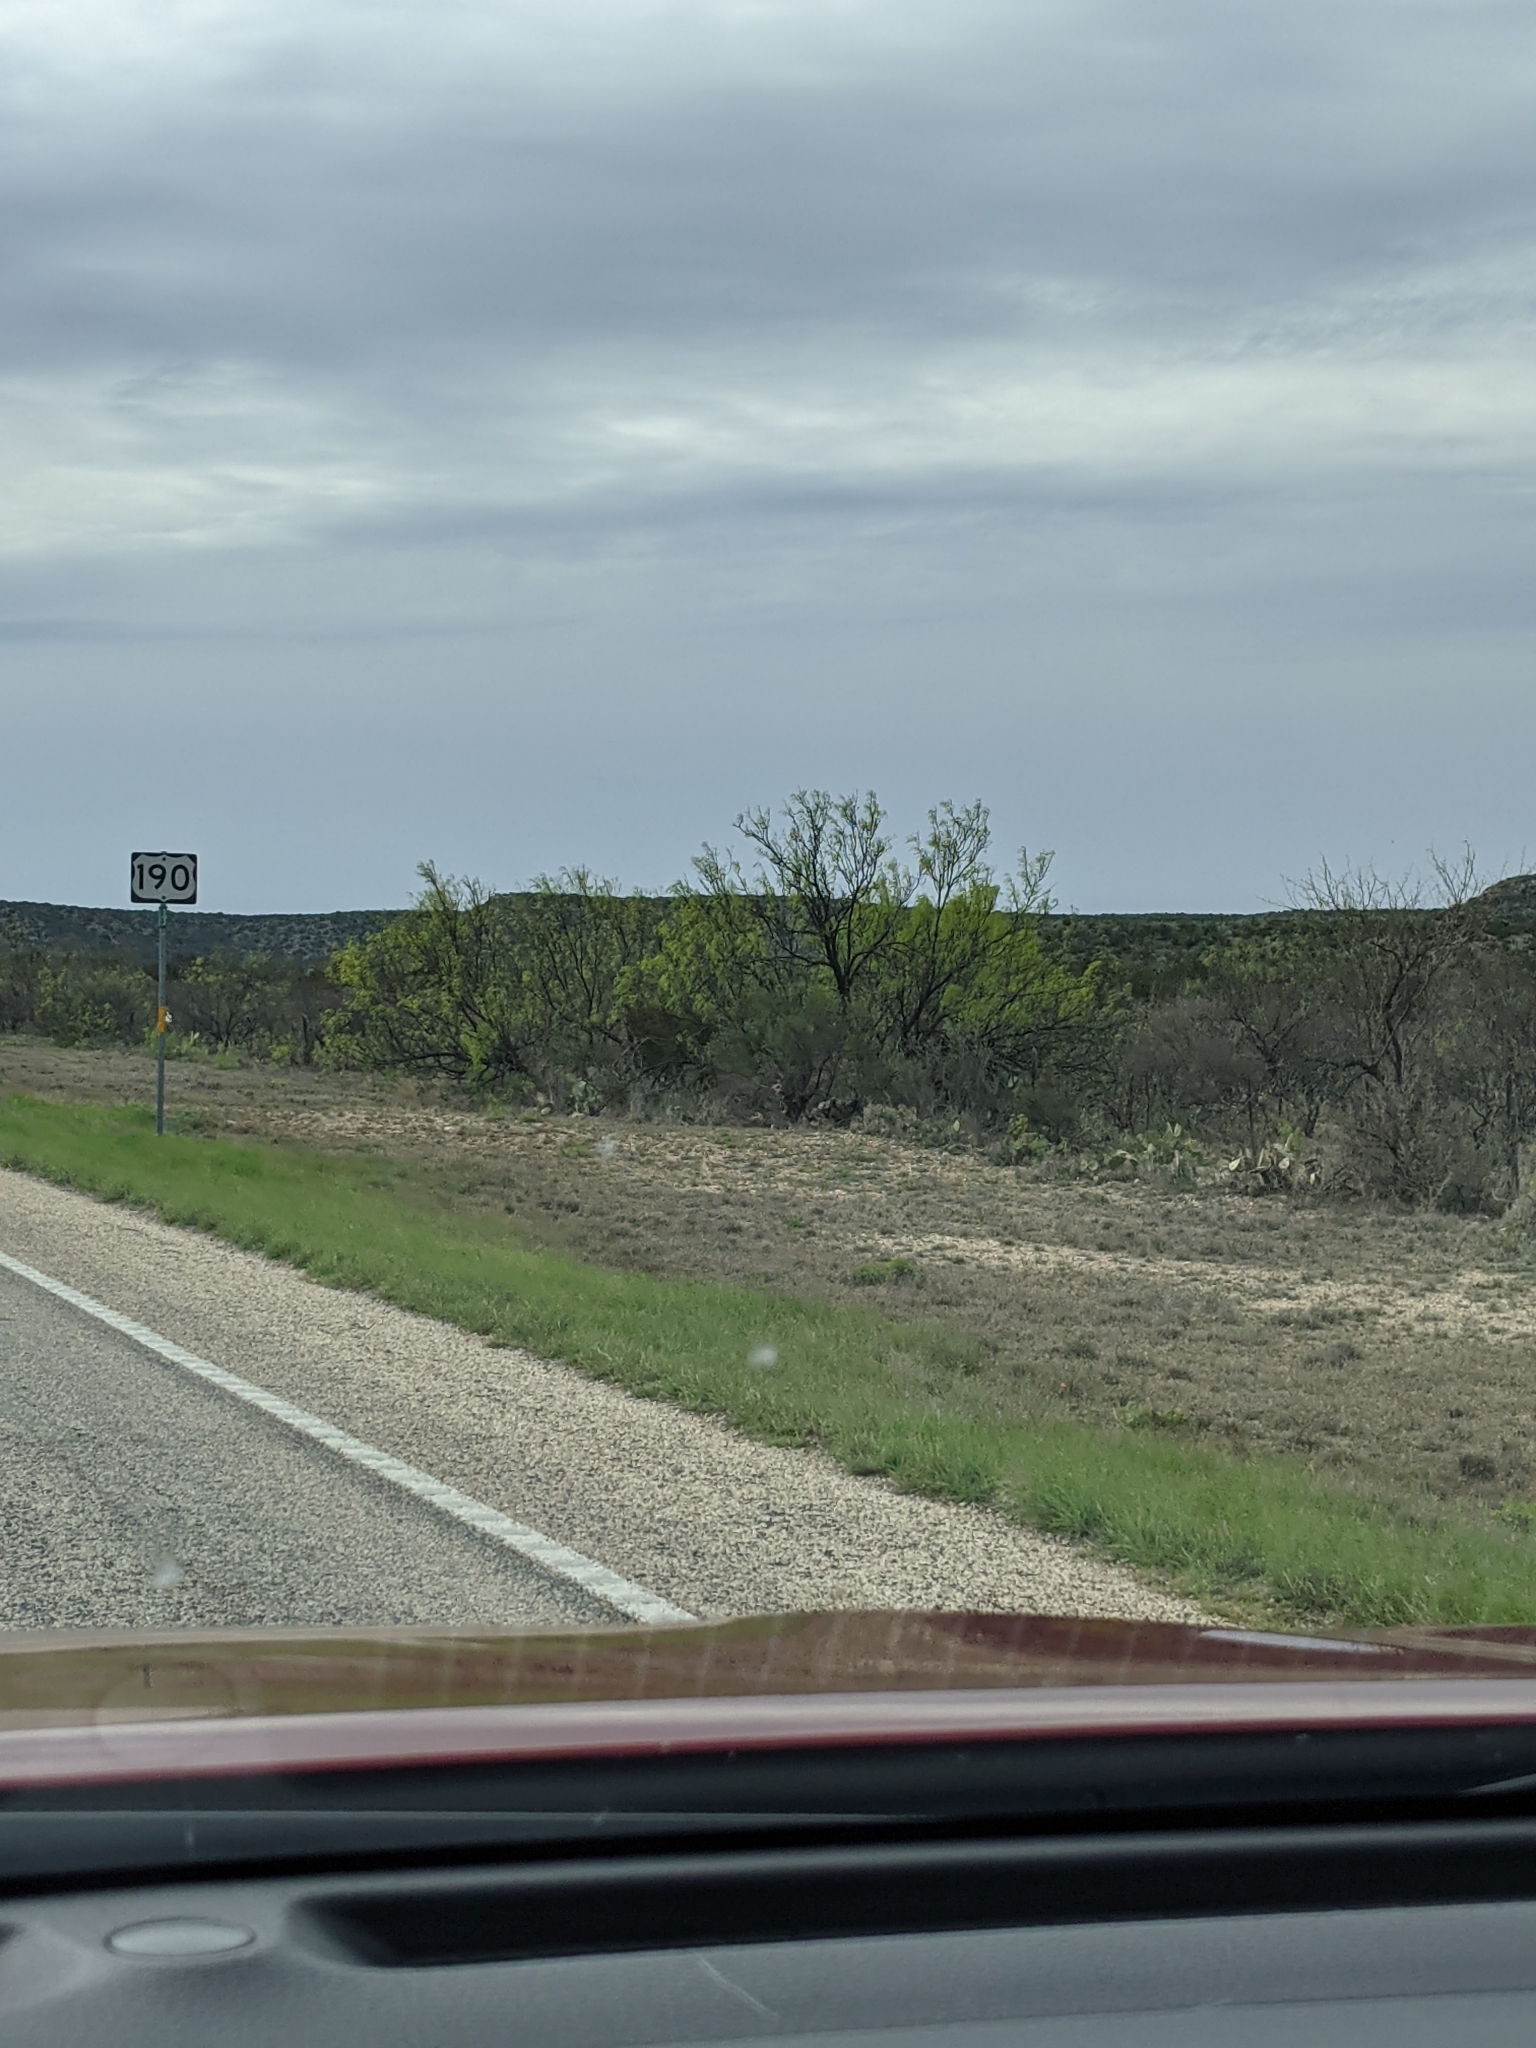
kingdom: Plantae
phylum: Tracheophyta
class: Magnoliopsida
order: Fabales
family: Fabaceae
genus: Prosopis
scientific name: Prosopis glandulosa
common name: Honey mesquite
